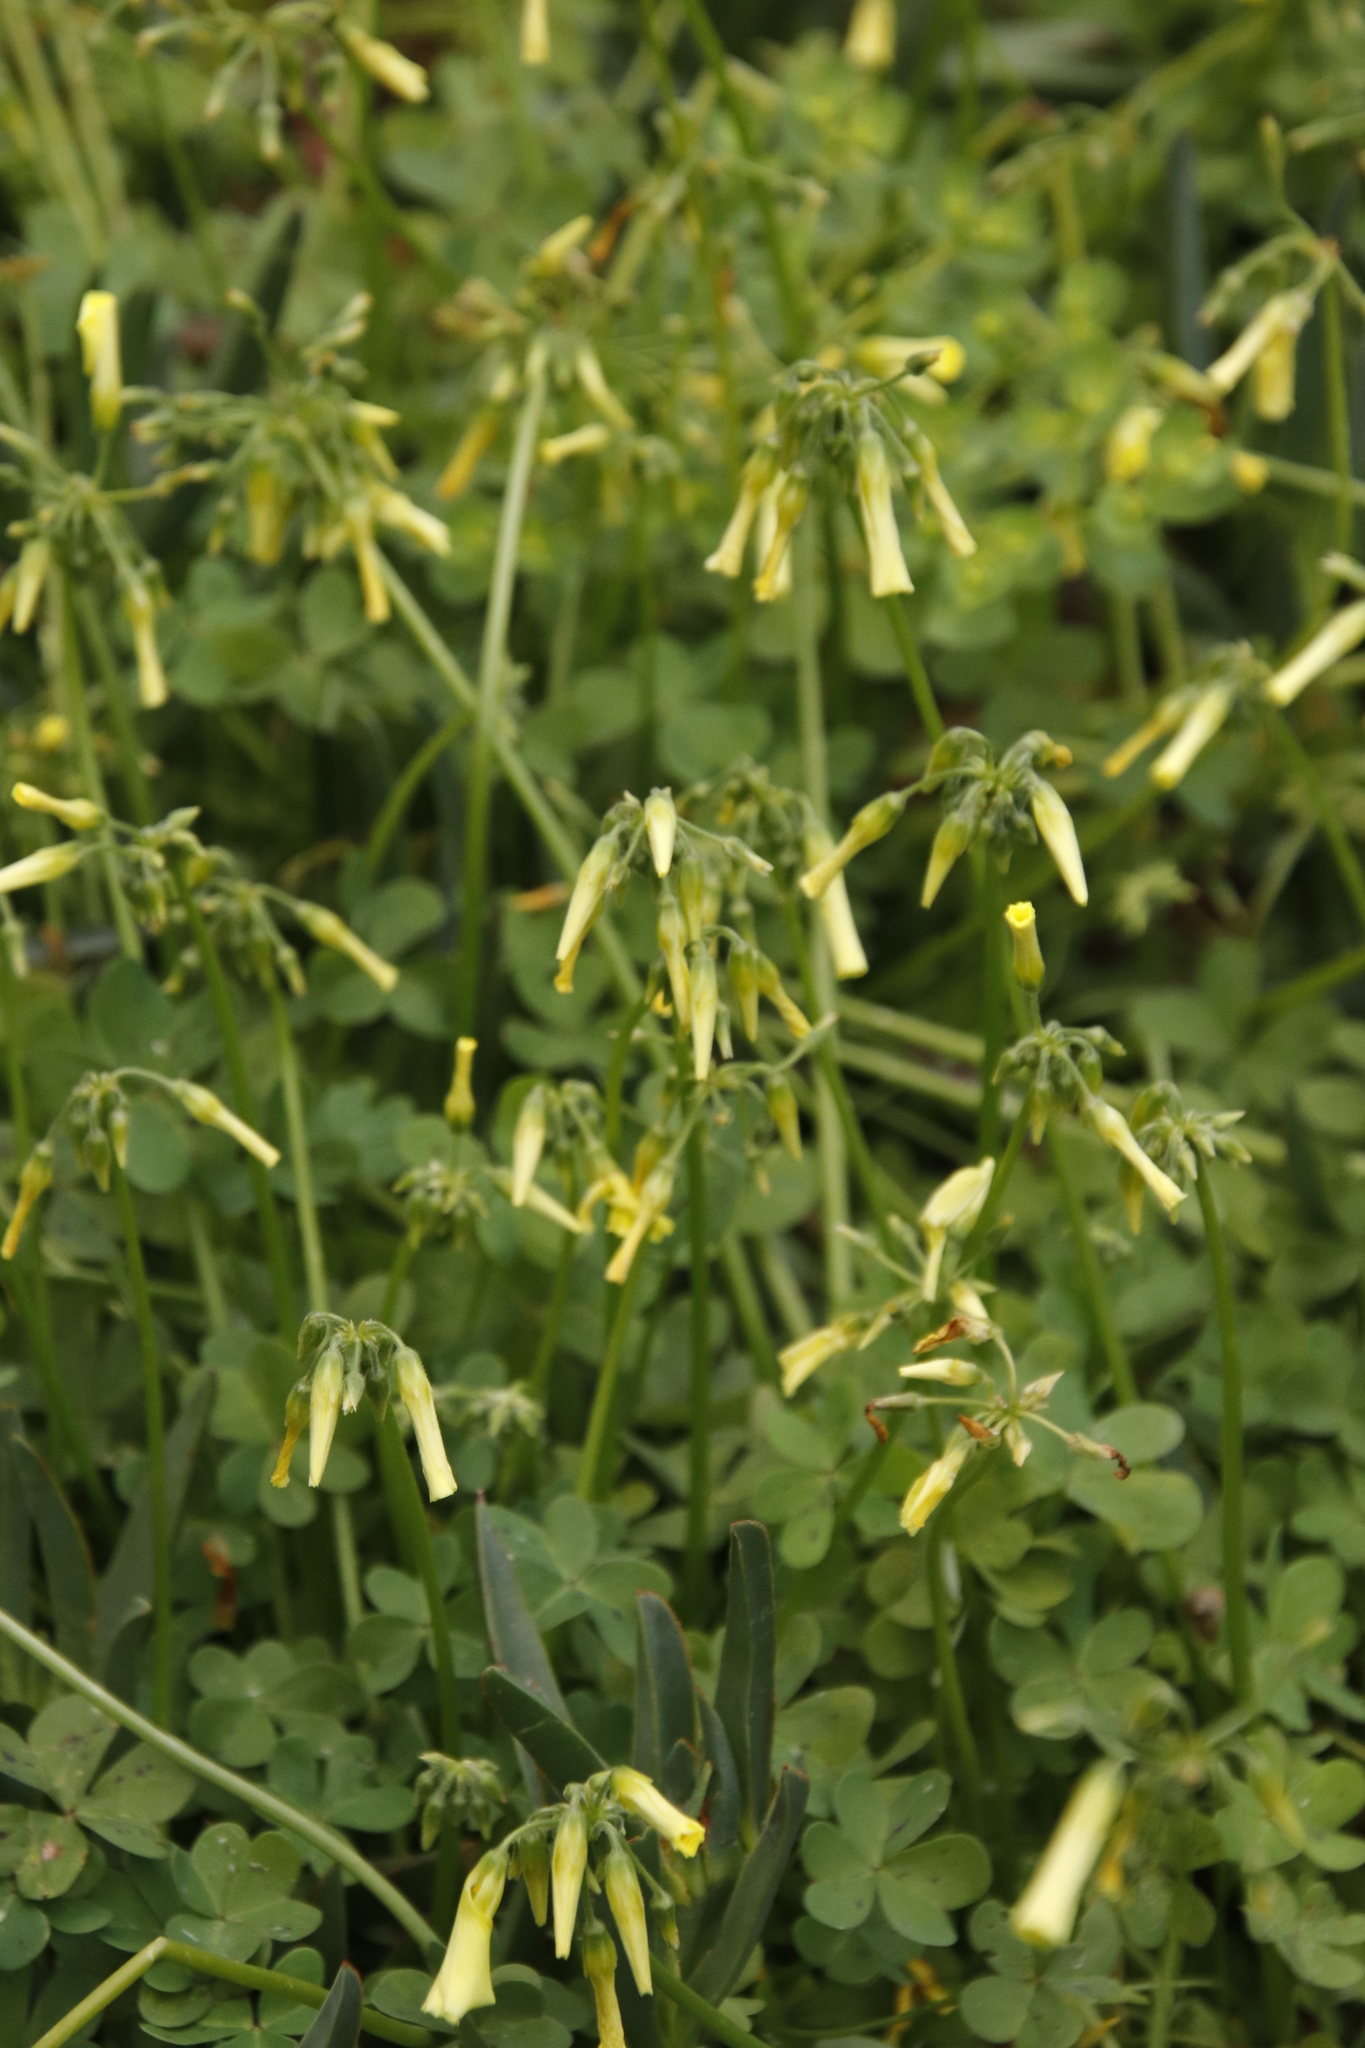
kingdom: Plantae
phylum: Tracheophyta
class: Magnoliopsida
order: Oxalidales
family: Oxalidaceae
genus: Oxalis
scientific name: Oxalis pes-caprae
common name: Bermuda-buttercup
